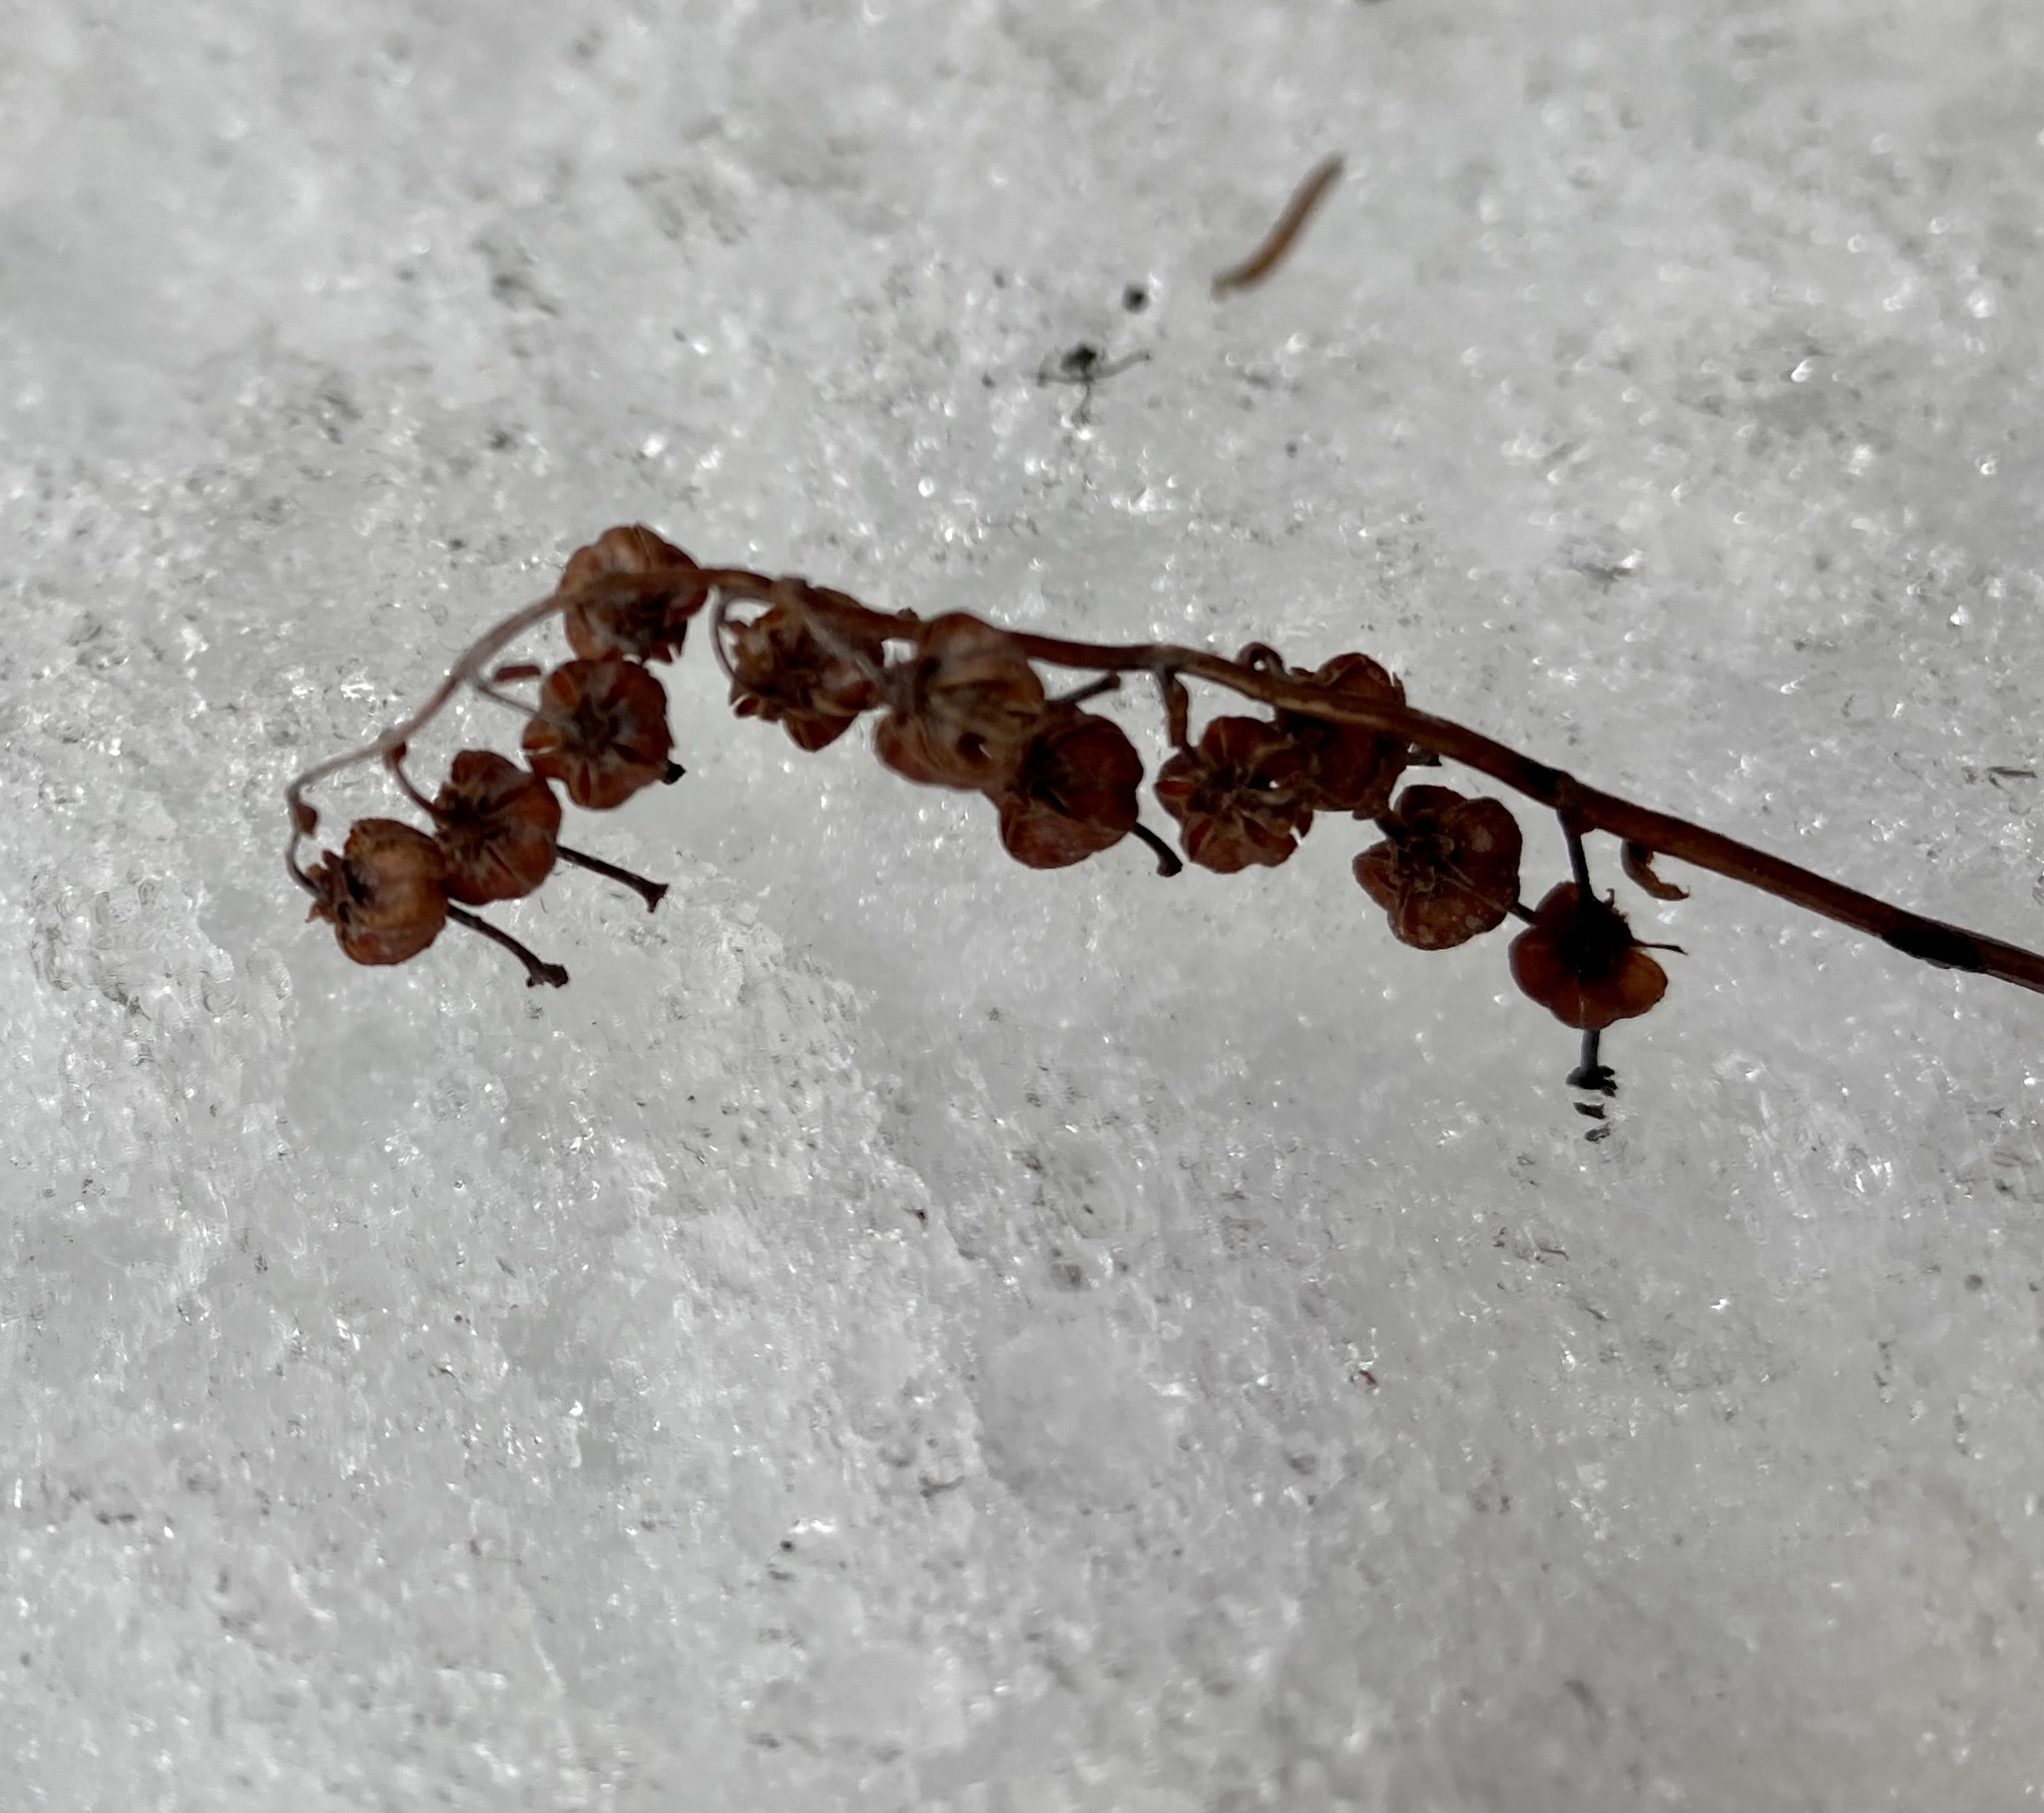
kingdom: Plantae
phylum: Tracheophyta
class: Magnoliopsida
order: Ericales
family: Ericaceae
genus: Orthilia
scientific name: Orthilia secunda
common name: One-sided orthilia
